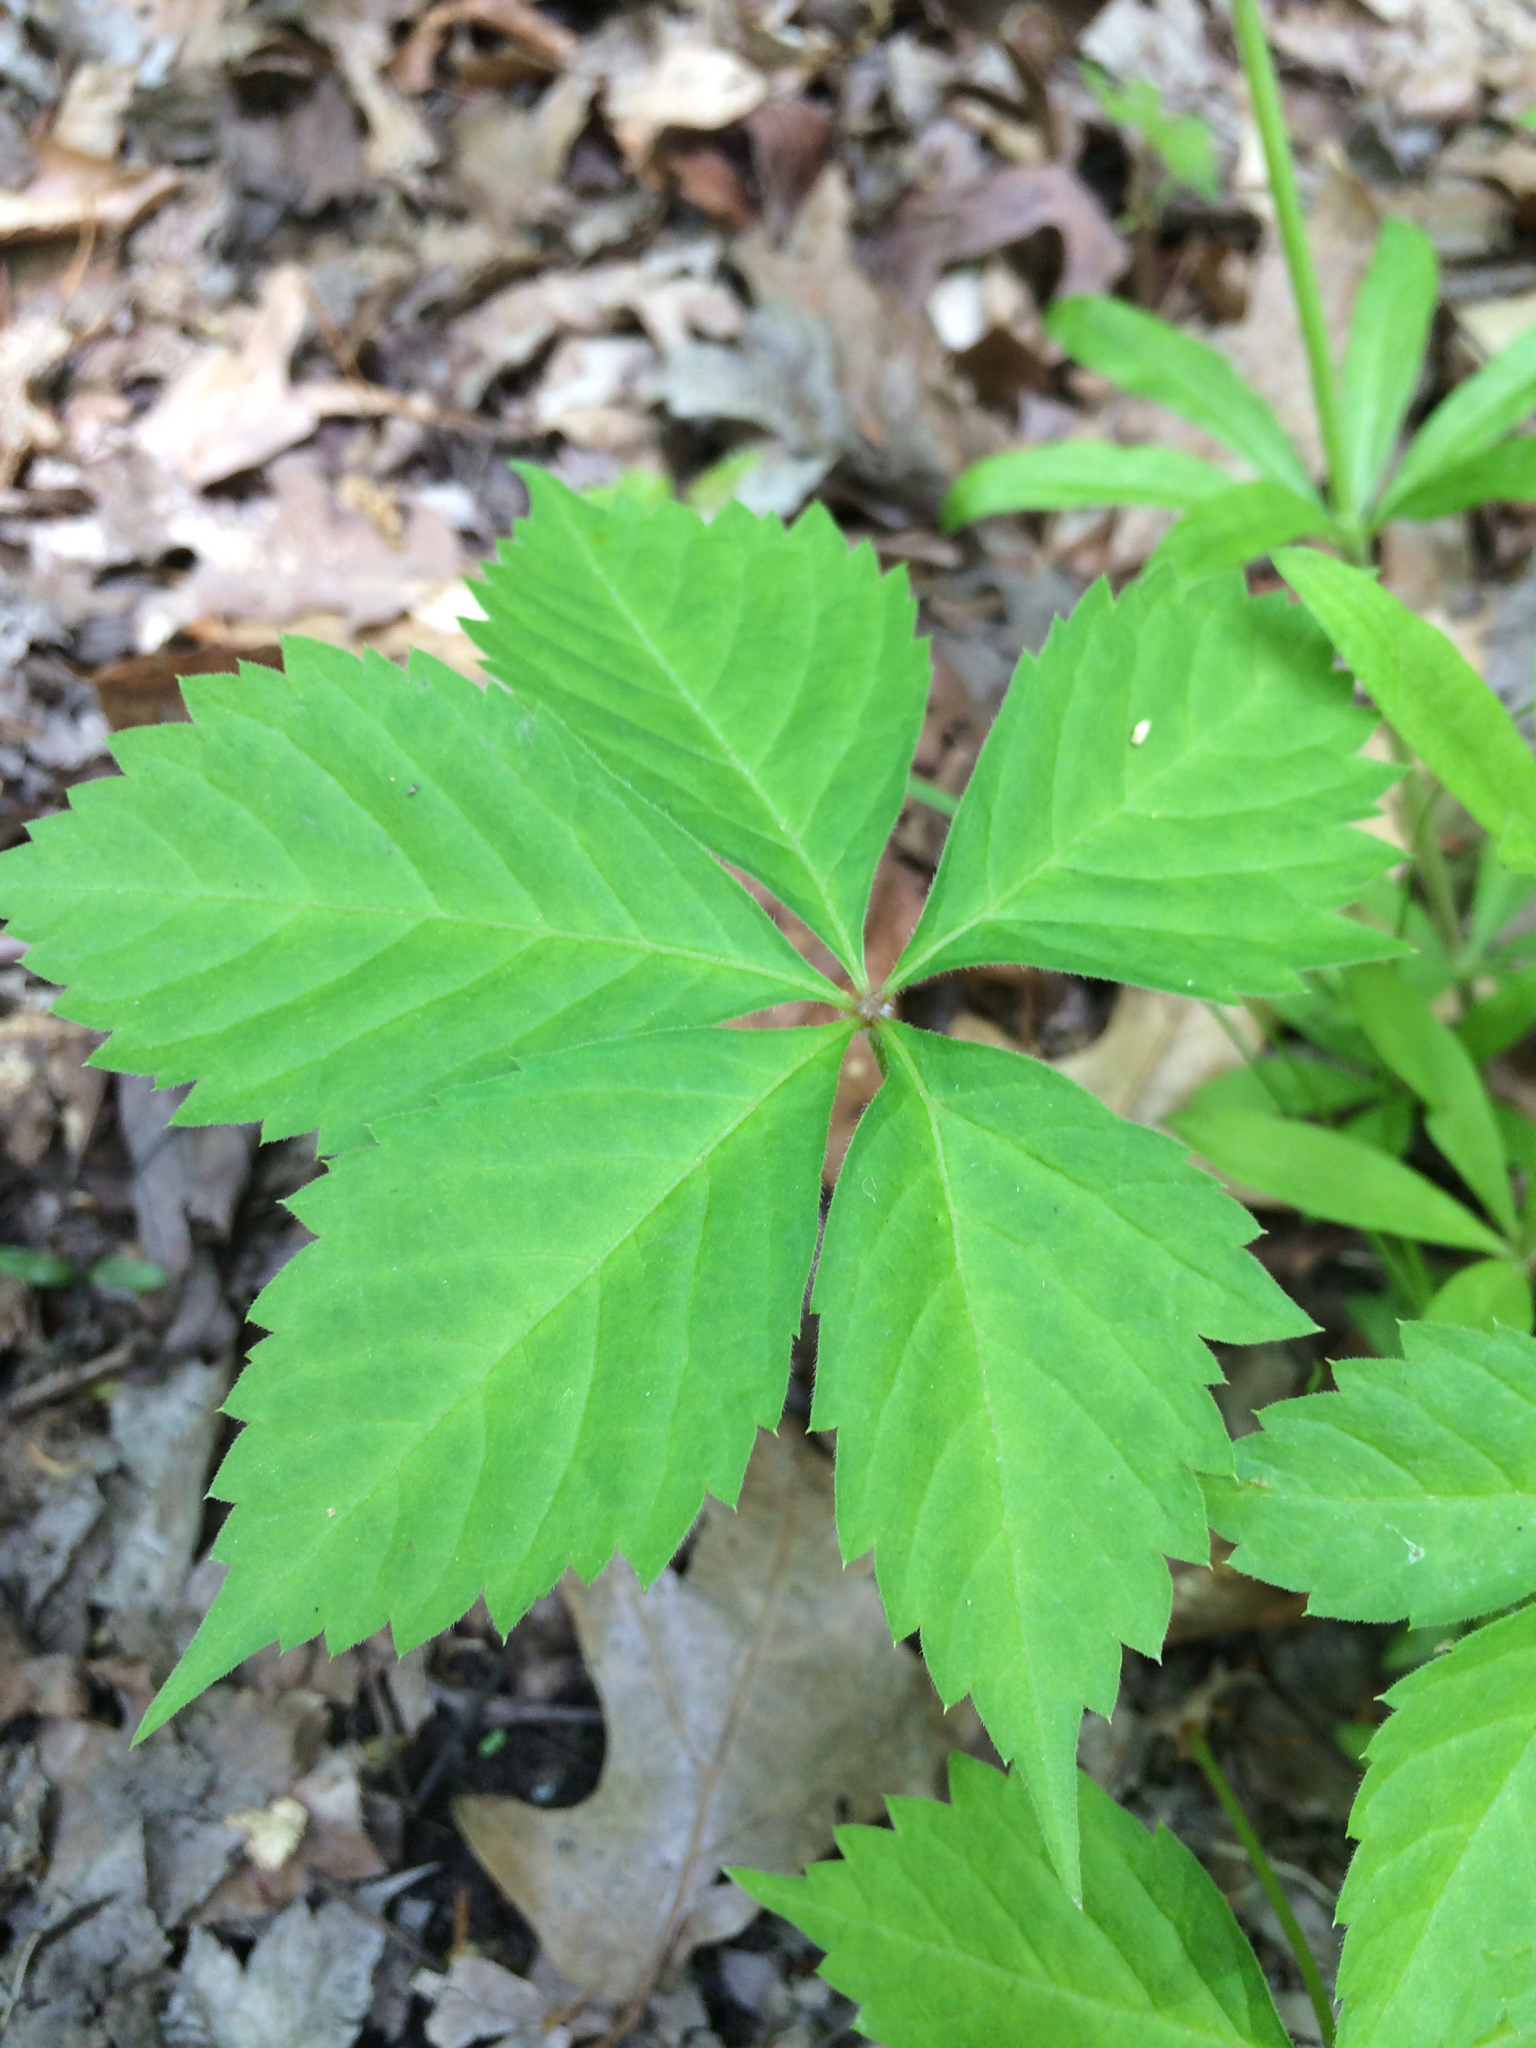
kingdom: Plantae
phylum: Tracheophyta
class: Magnoliopsida
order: Vitales
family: Vitaceae
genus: Parthenocissus
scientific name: Parthenocissus quinquefolia
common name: Virginia-creeper
